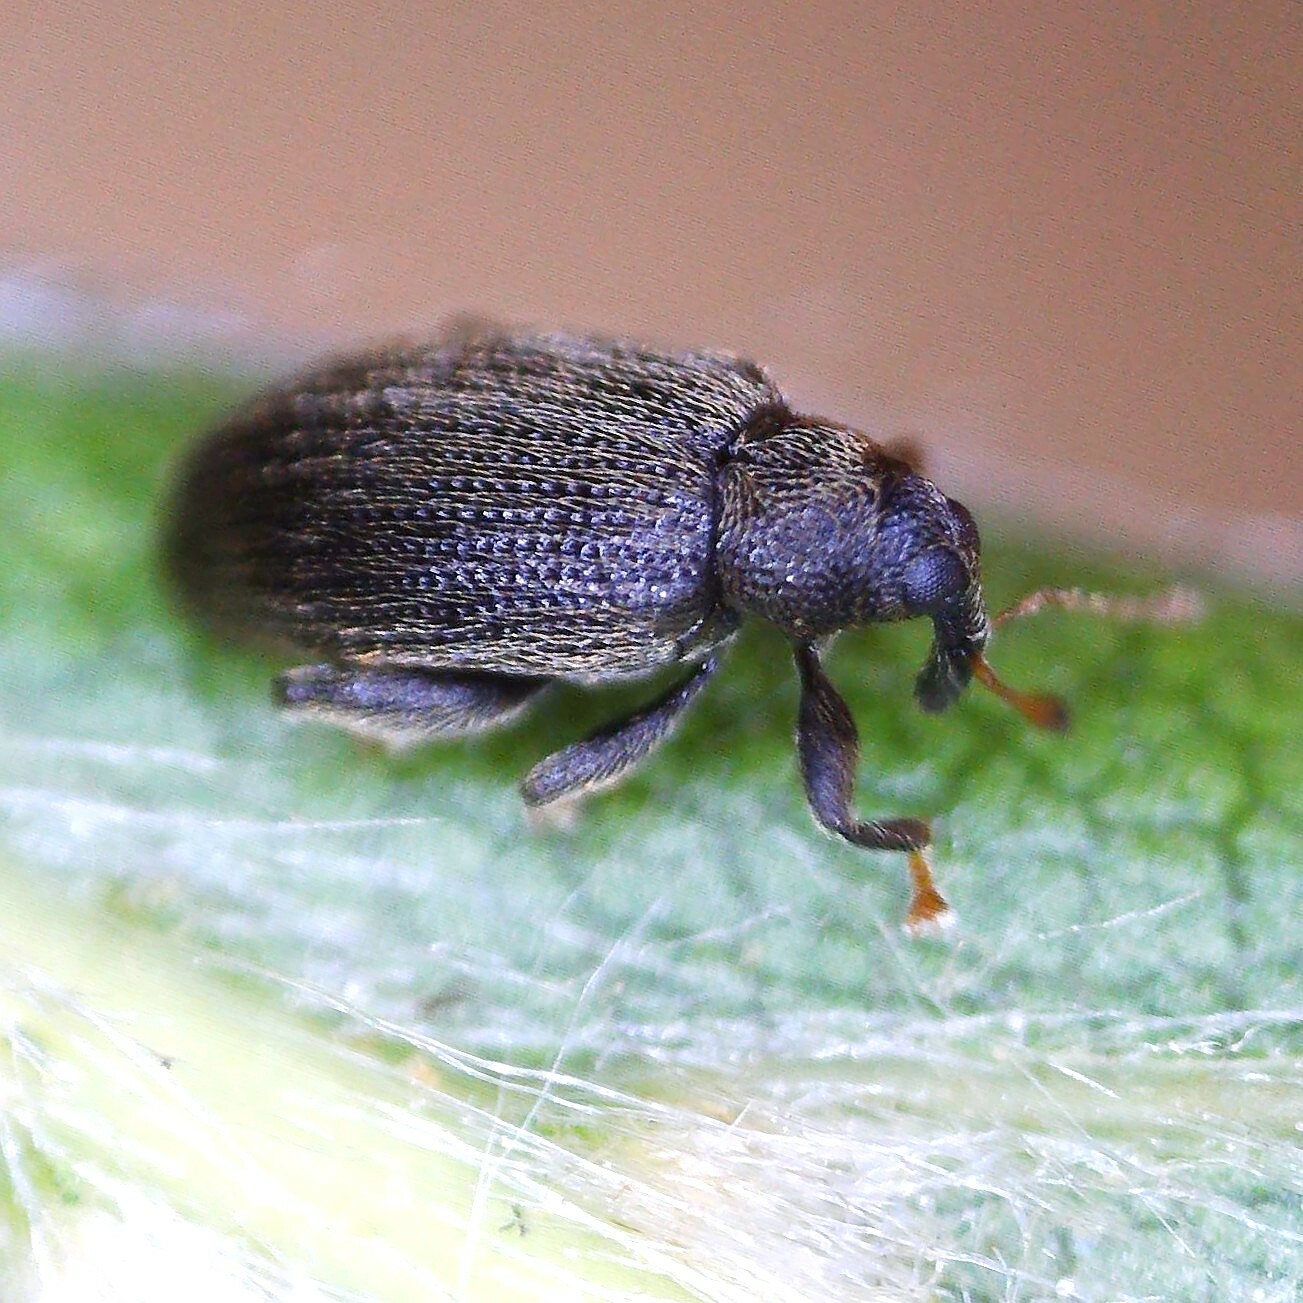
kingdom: Animalia
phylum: Arthropoda
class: Insecta
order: Coleoptera
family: Curculionidae
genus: Orchestes
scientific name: Orchestes fagi
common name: Beech leaf miner
